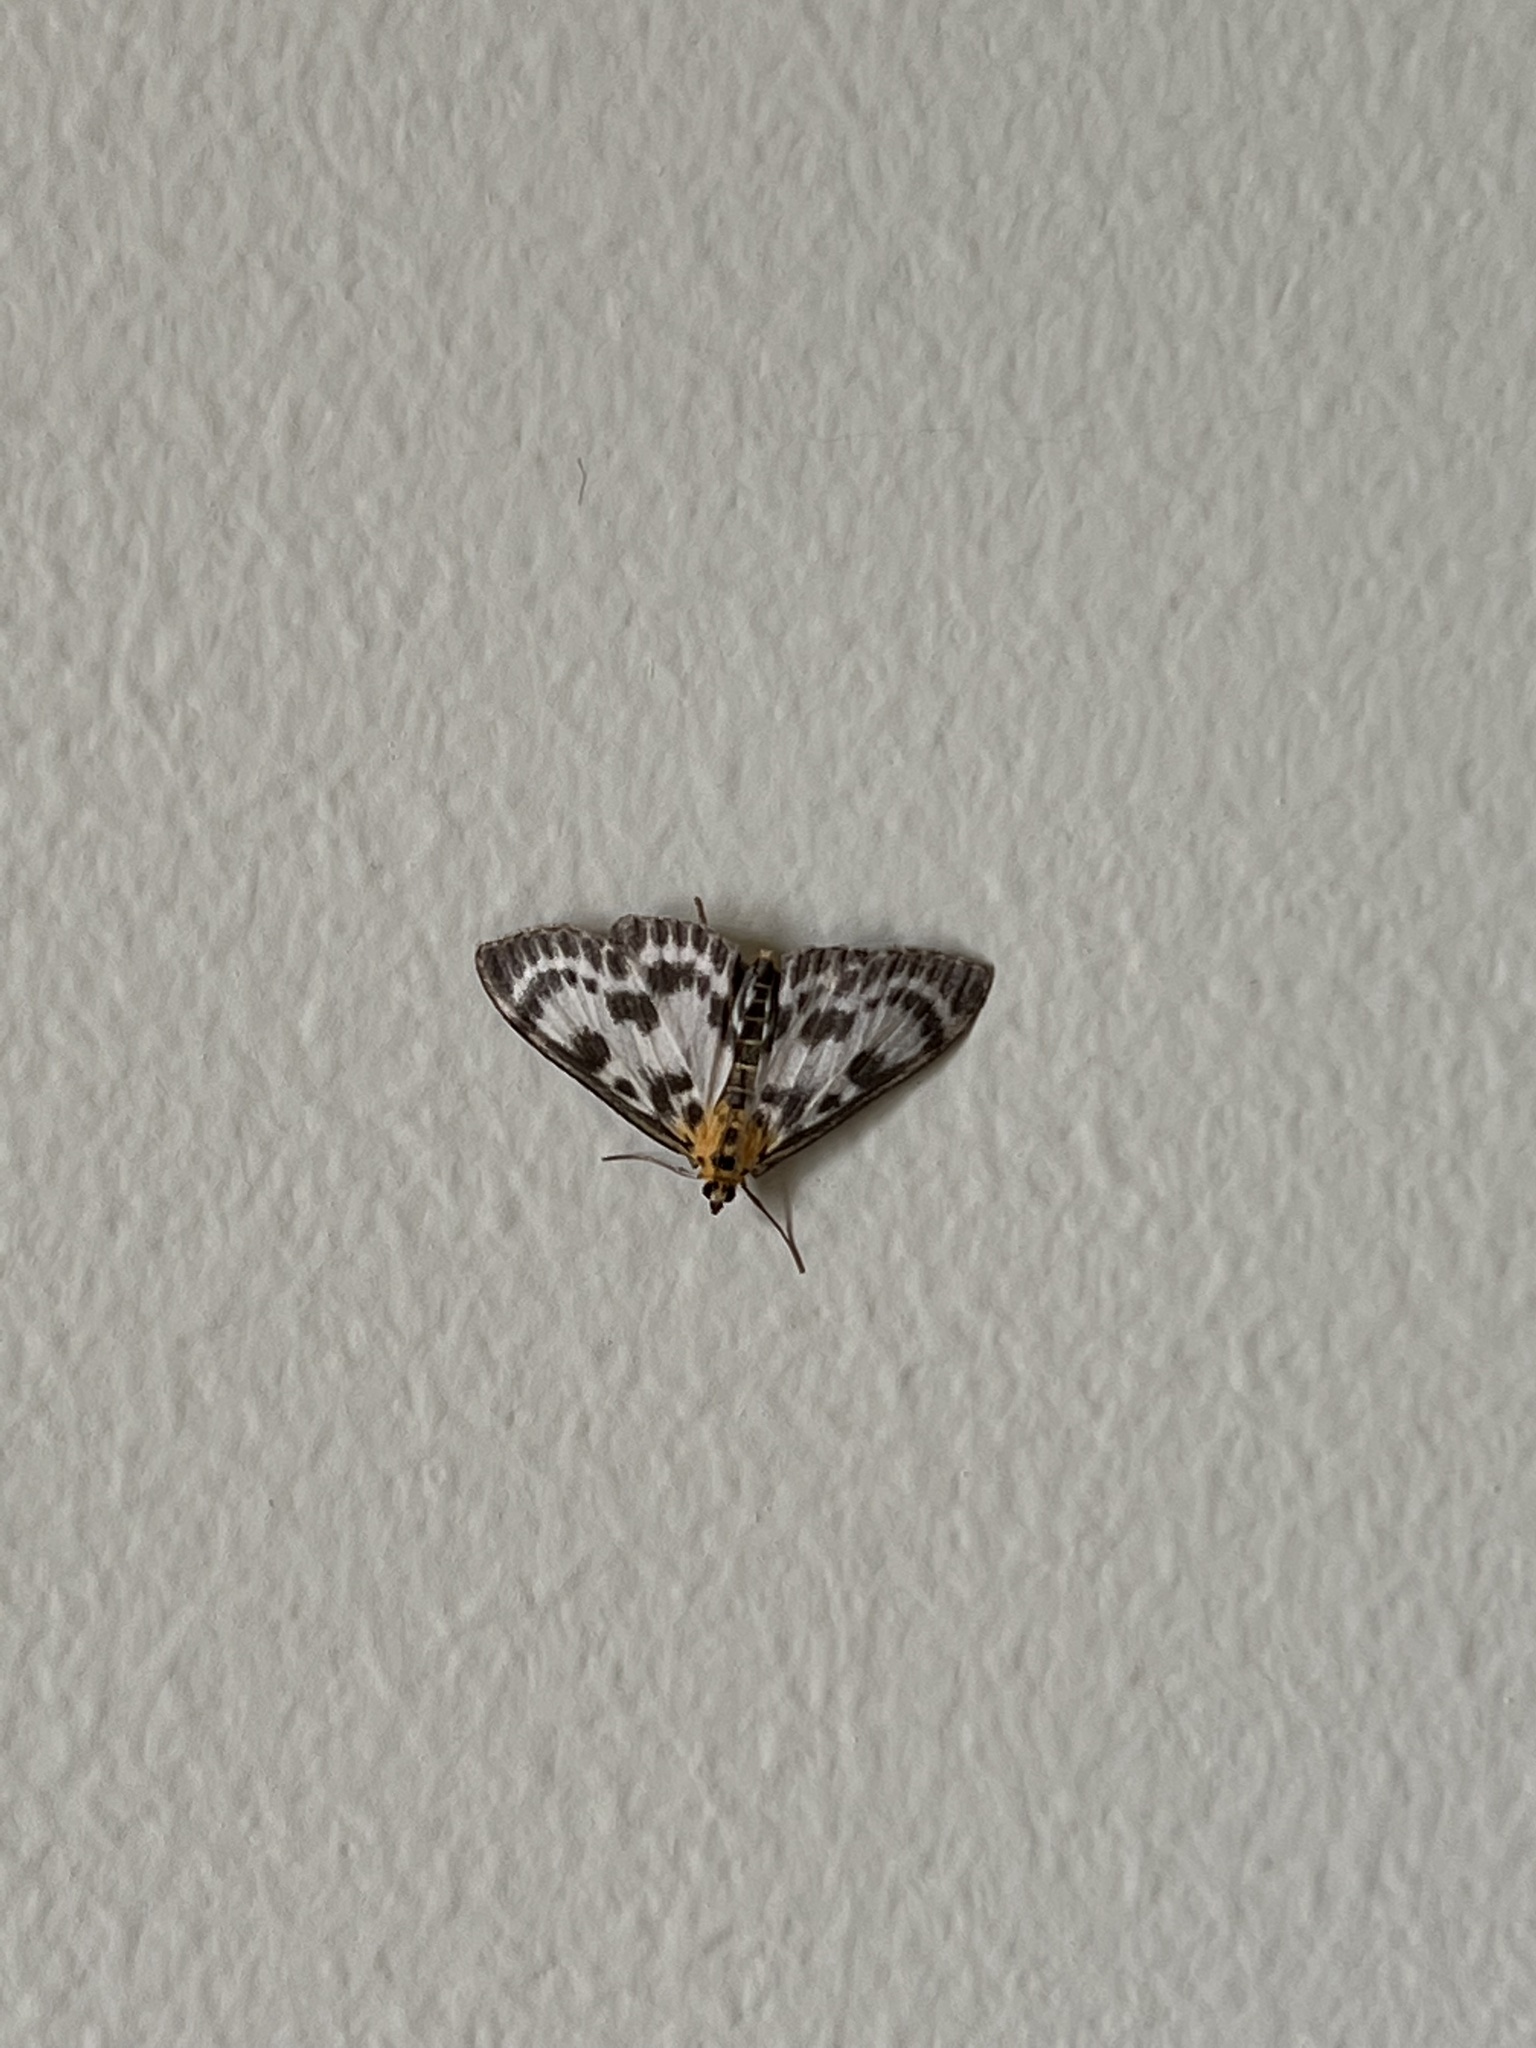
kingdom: Animalia
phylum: Arthropoda
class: Insecta
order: Lepidoptera
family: Crambidae
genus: Anania
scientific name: Anania hortulata
